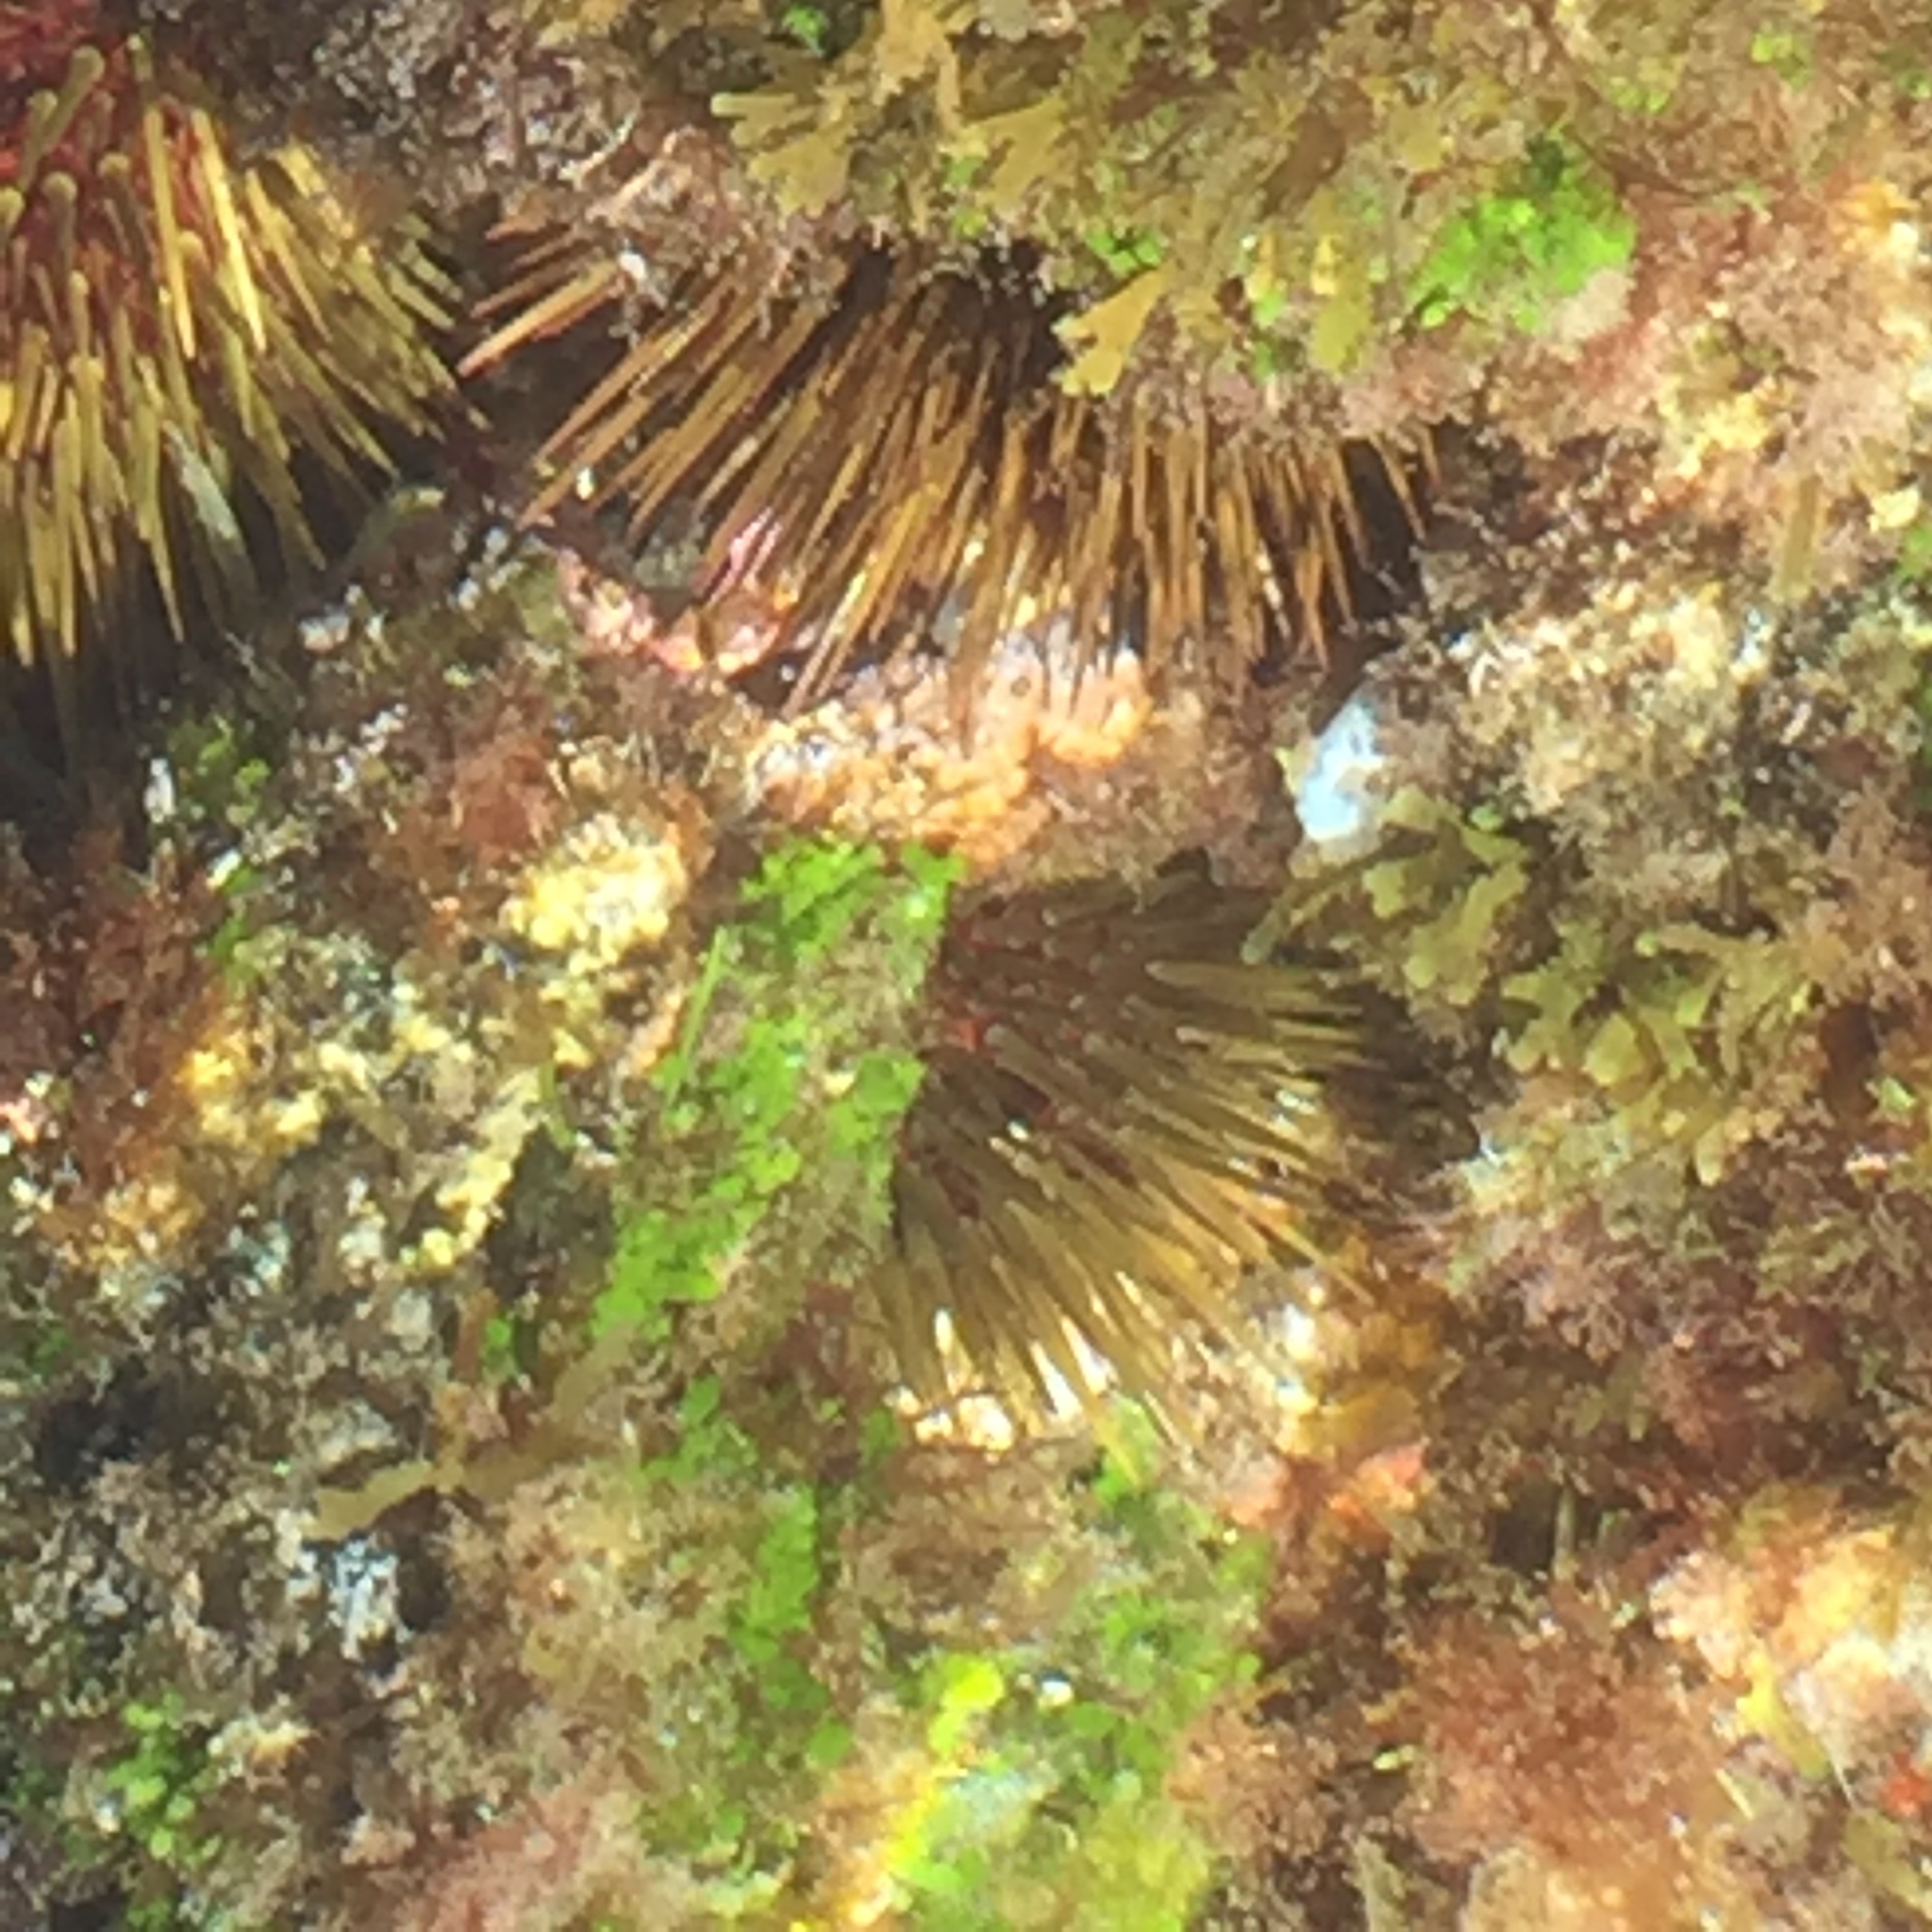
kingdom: Animalia
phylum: Echinodermata
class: Echinoidea
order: Camarodonta
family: Parechinidae
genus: Paracentrotus
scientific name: Paracentrotus lividus
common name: Purple sea urchin
